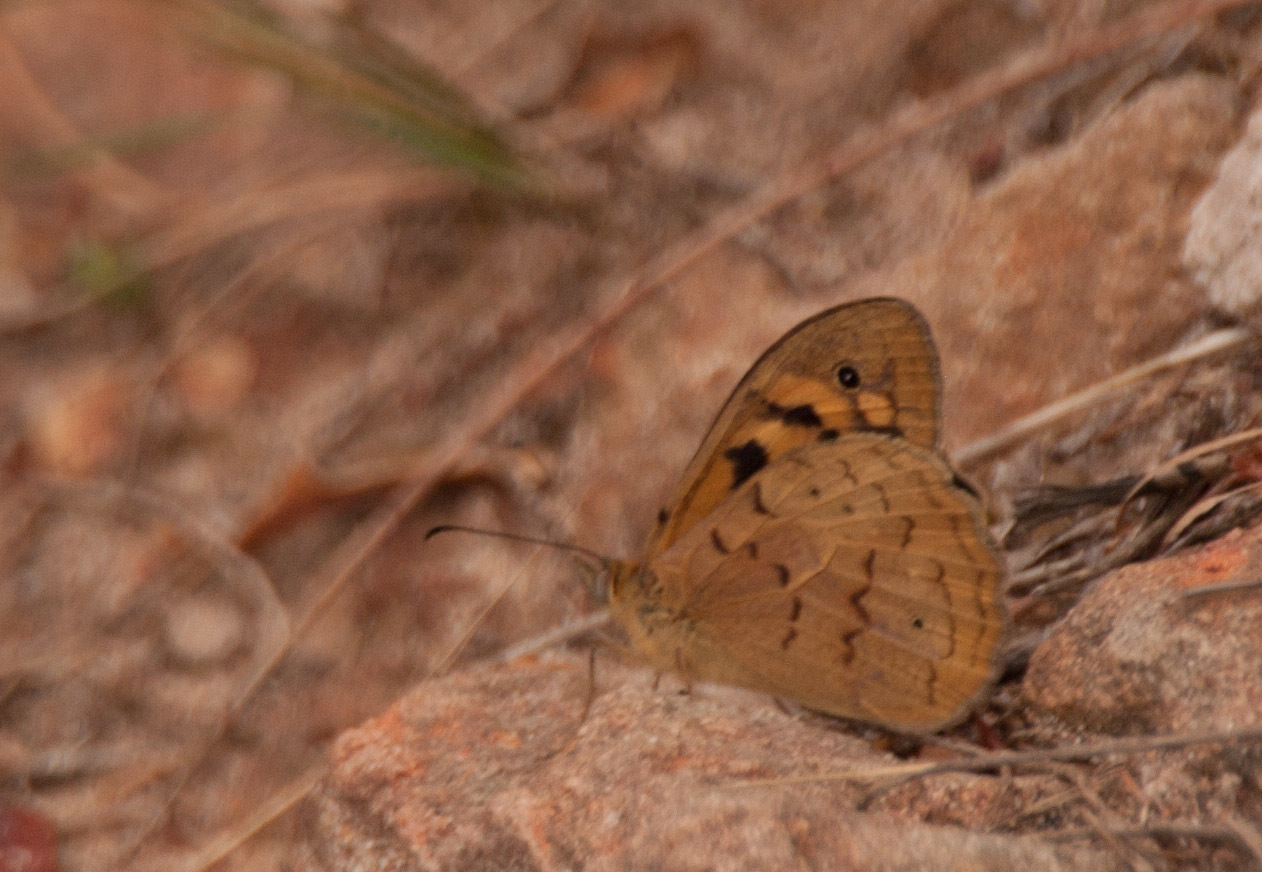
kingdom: Animalia
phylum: Arthropoda
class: Insecta
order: Lepidoptera
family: Nymphalidae
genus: Heteronympha
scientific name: Heteronympha merope
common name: Common brown
